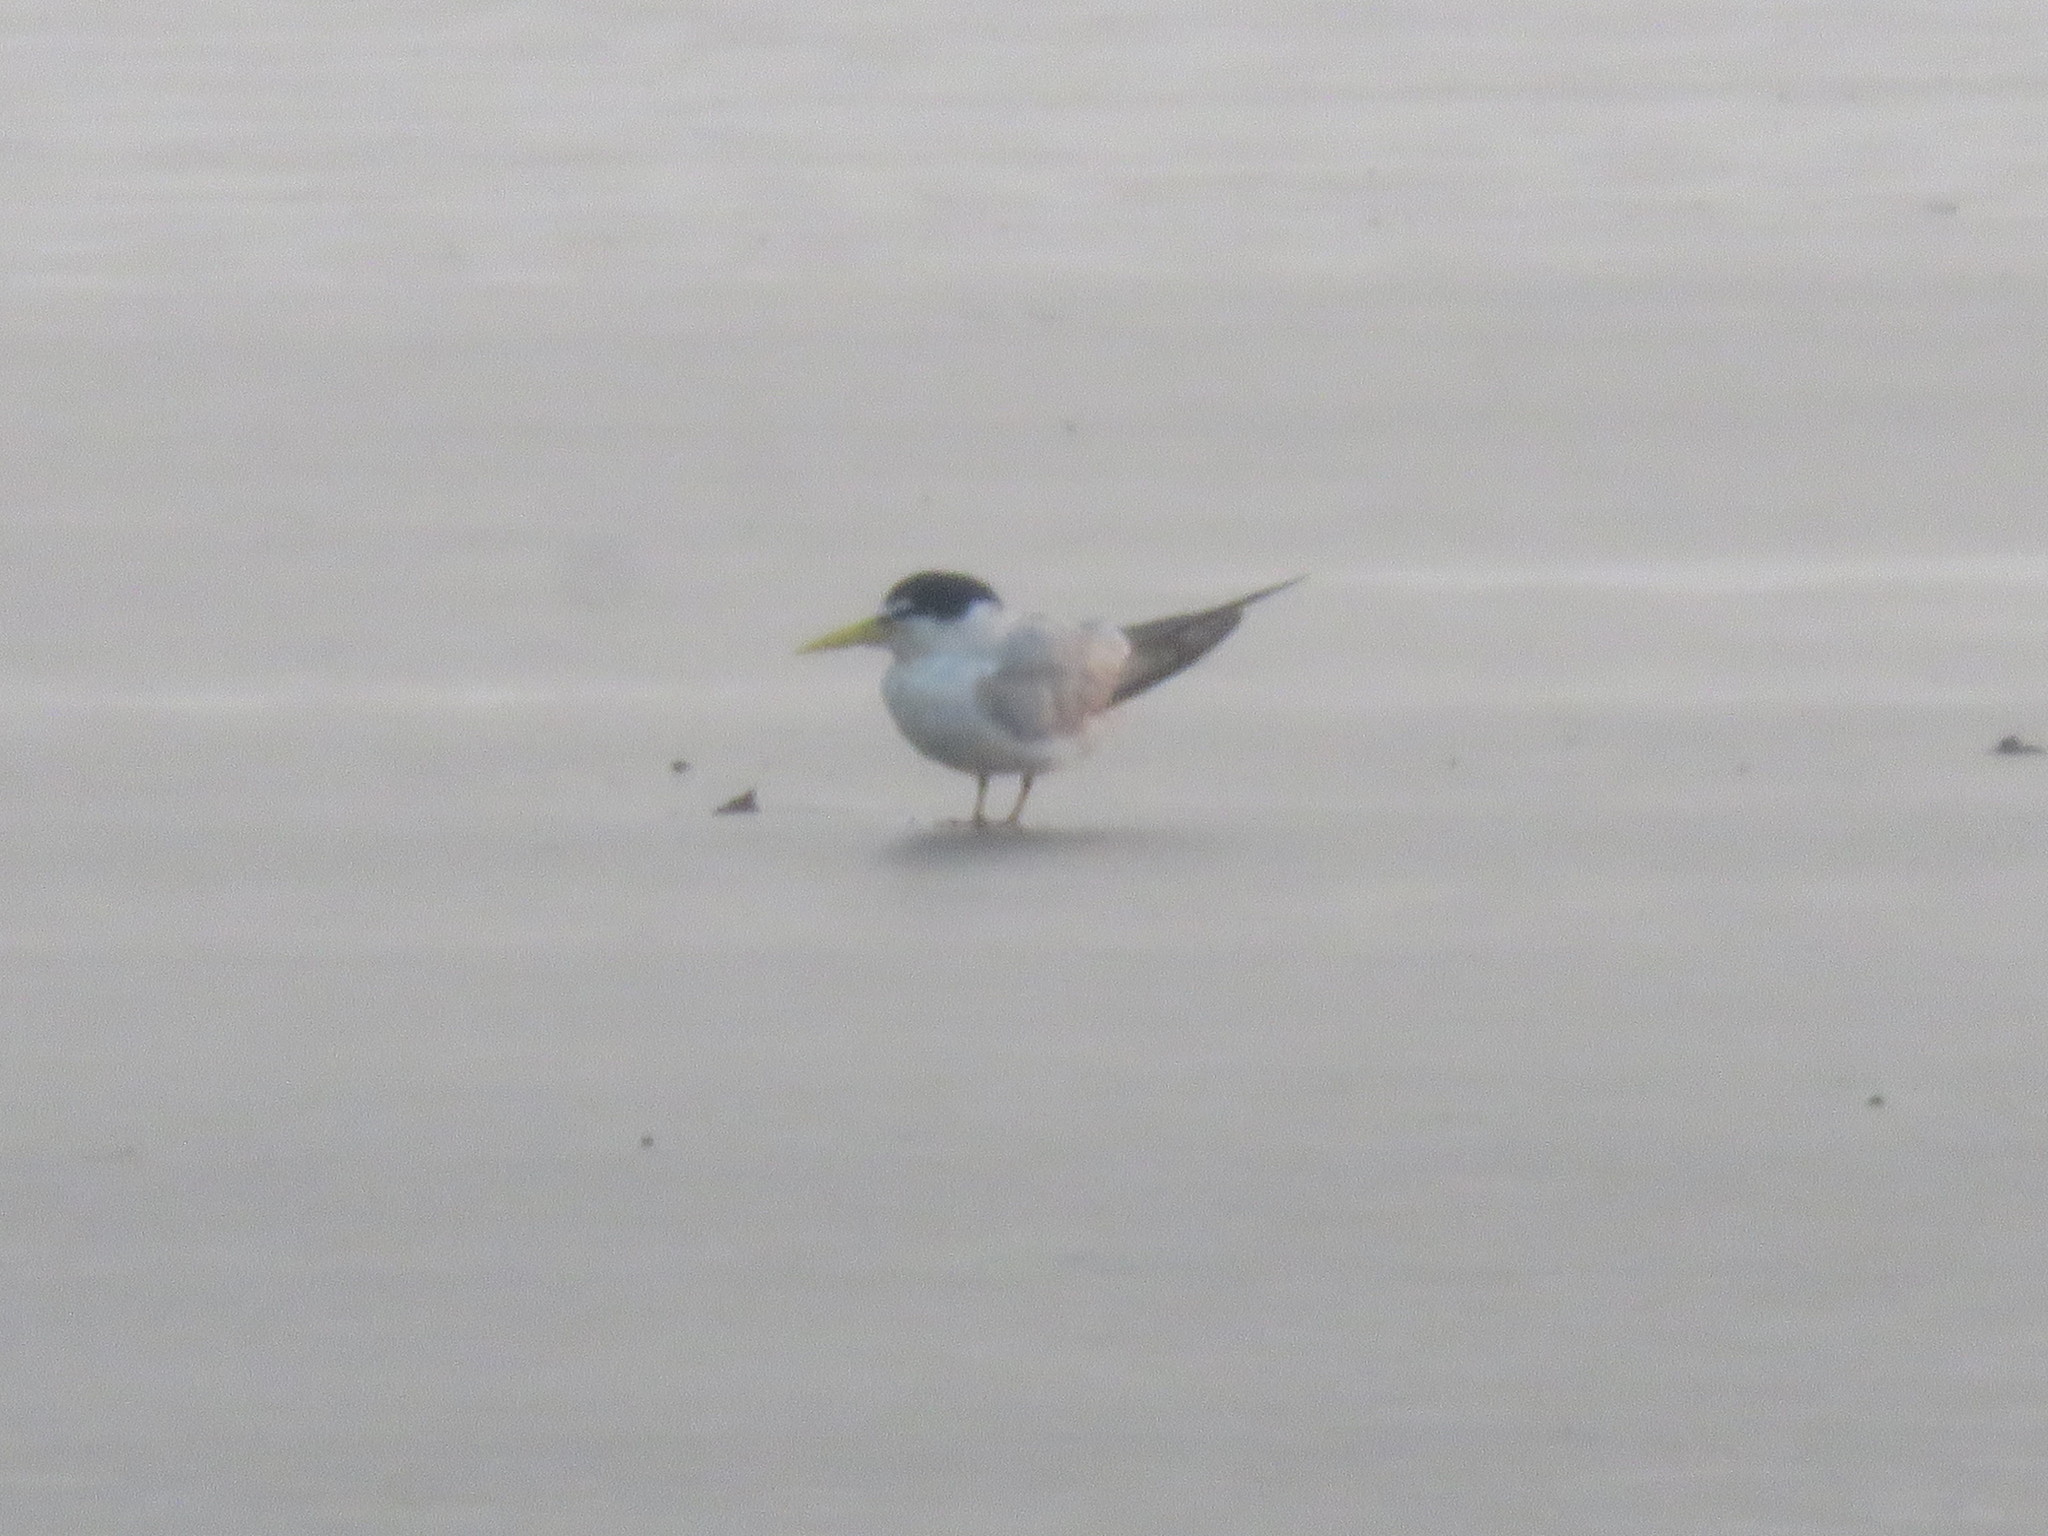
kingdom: Animalia
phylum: Chordata
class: Aves
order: Charadriiformes
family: Laridae
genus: Sternula
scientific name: Sternula superciliaris
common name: Yellow-billed tern
